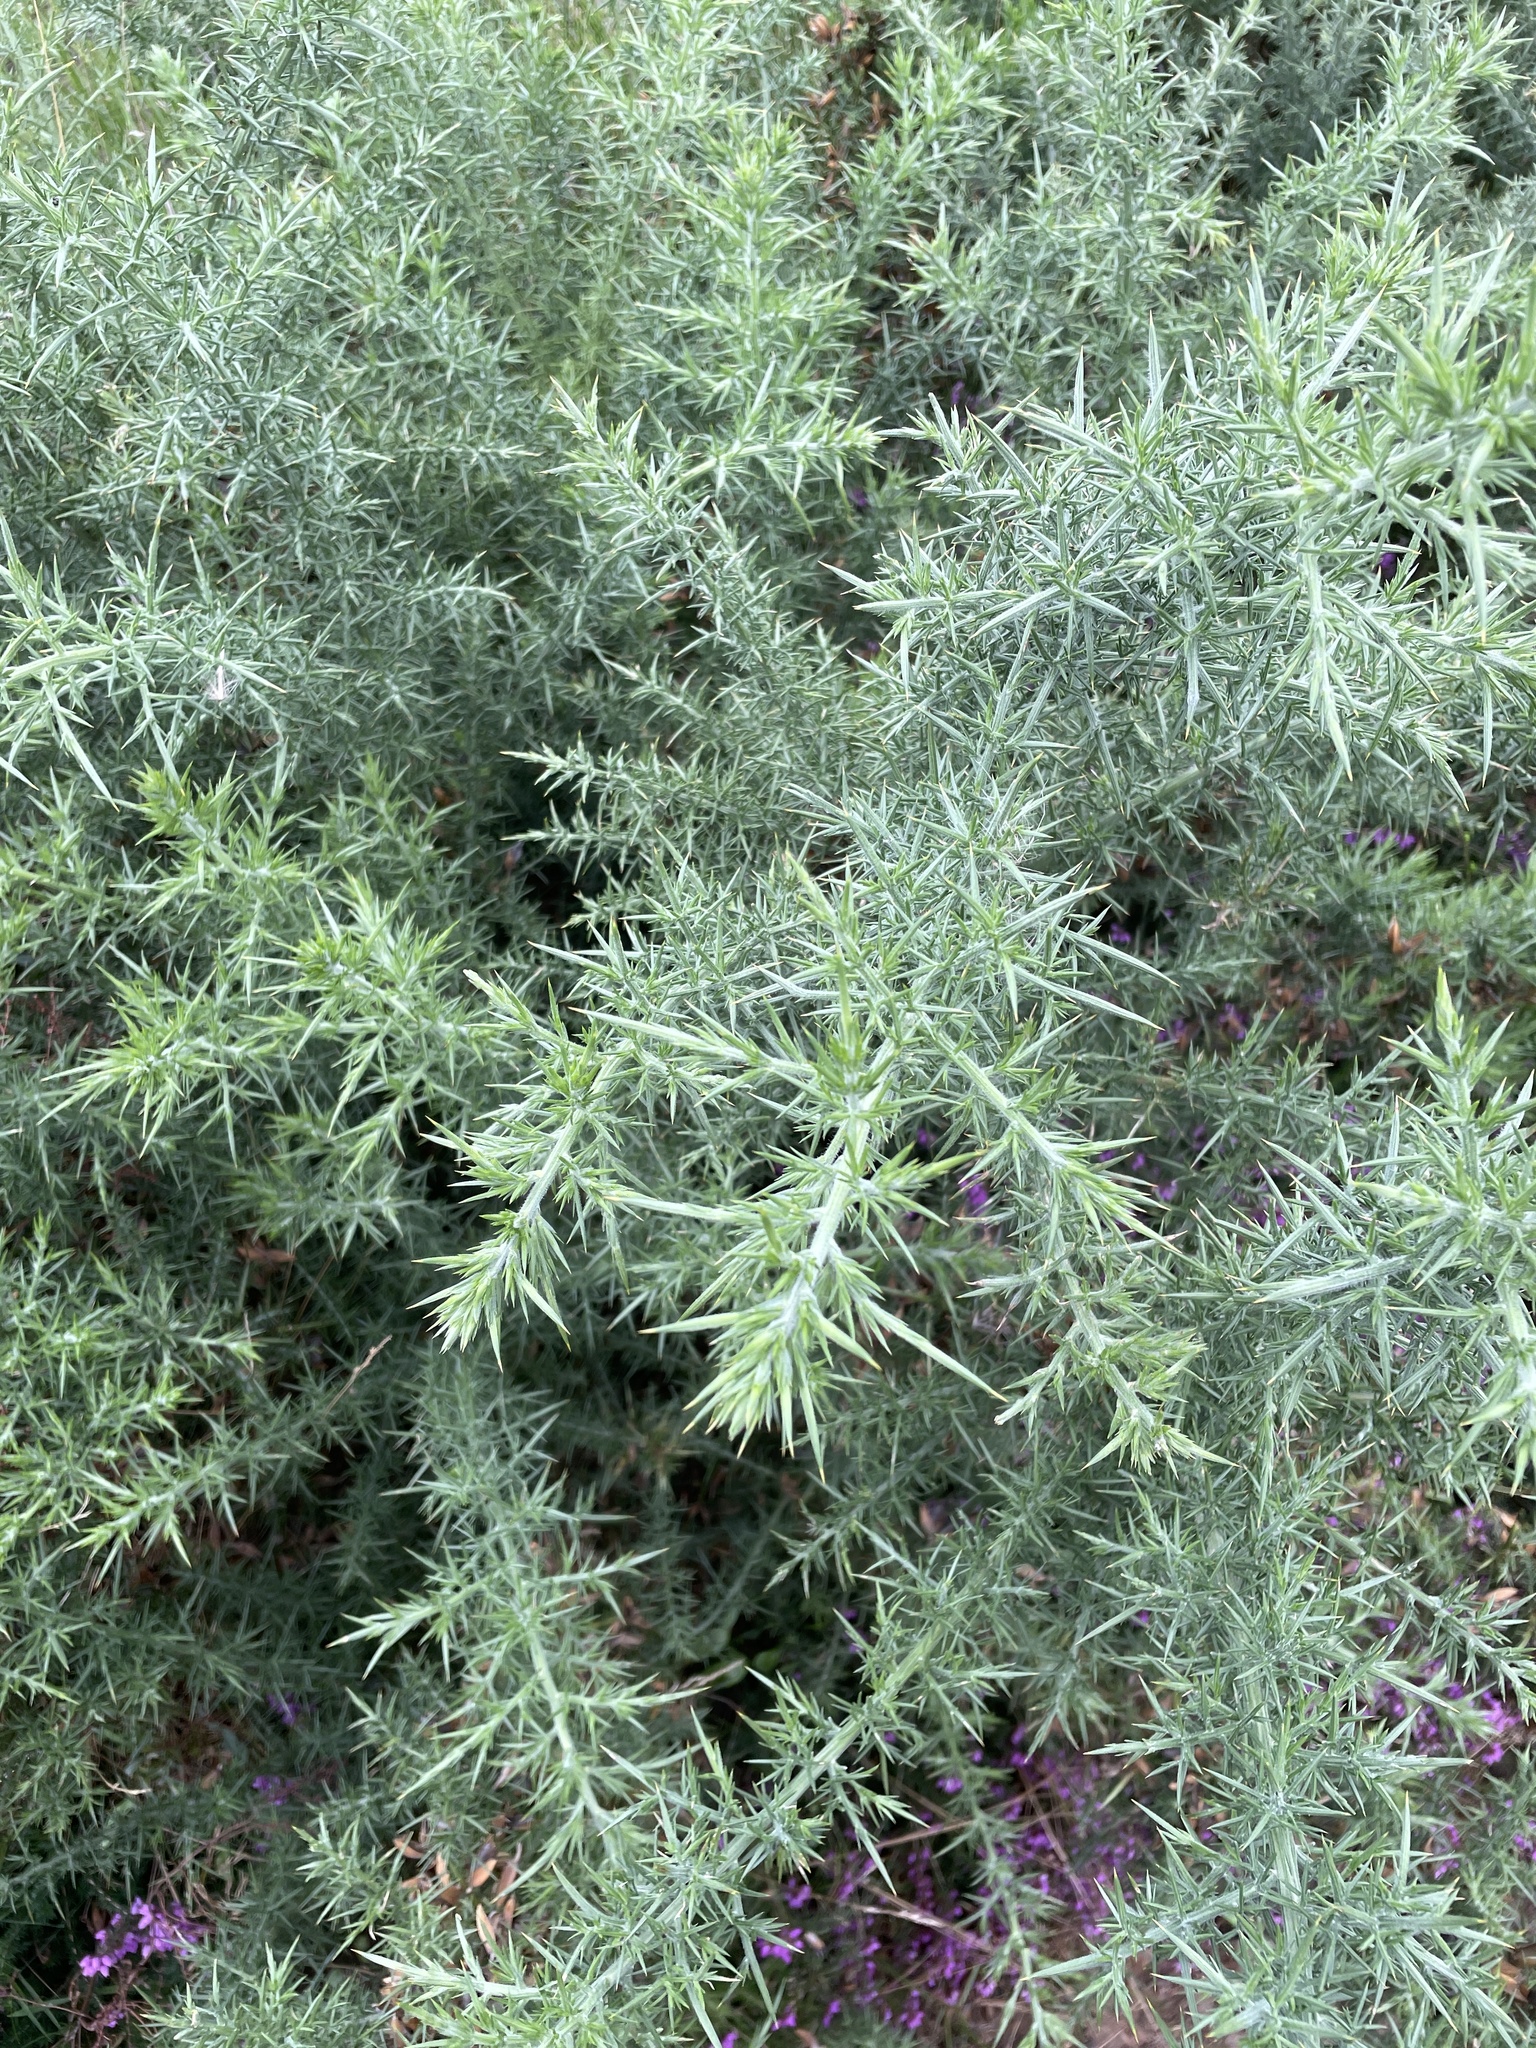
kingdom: Plantae
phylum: Tracheophyta
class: Magnoliopsida
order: Fabales
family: Fabaceae
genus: Ulex
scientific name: Ulex europaeus
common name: Common gorse
